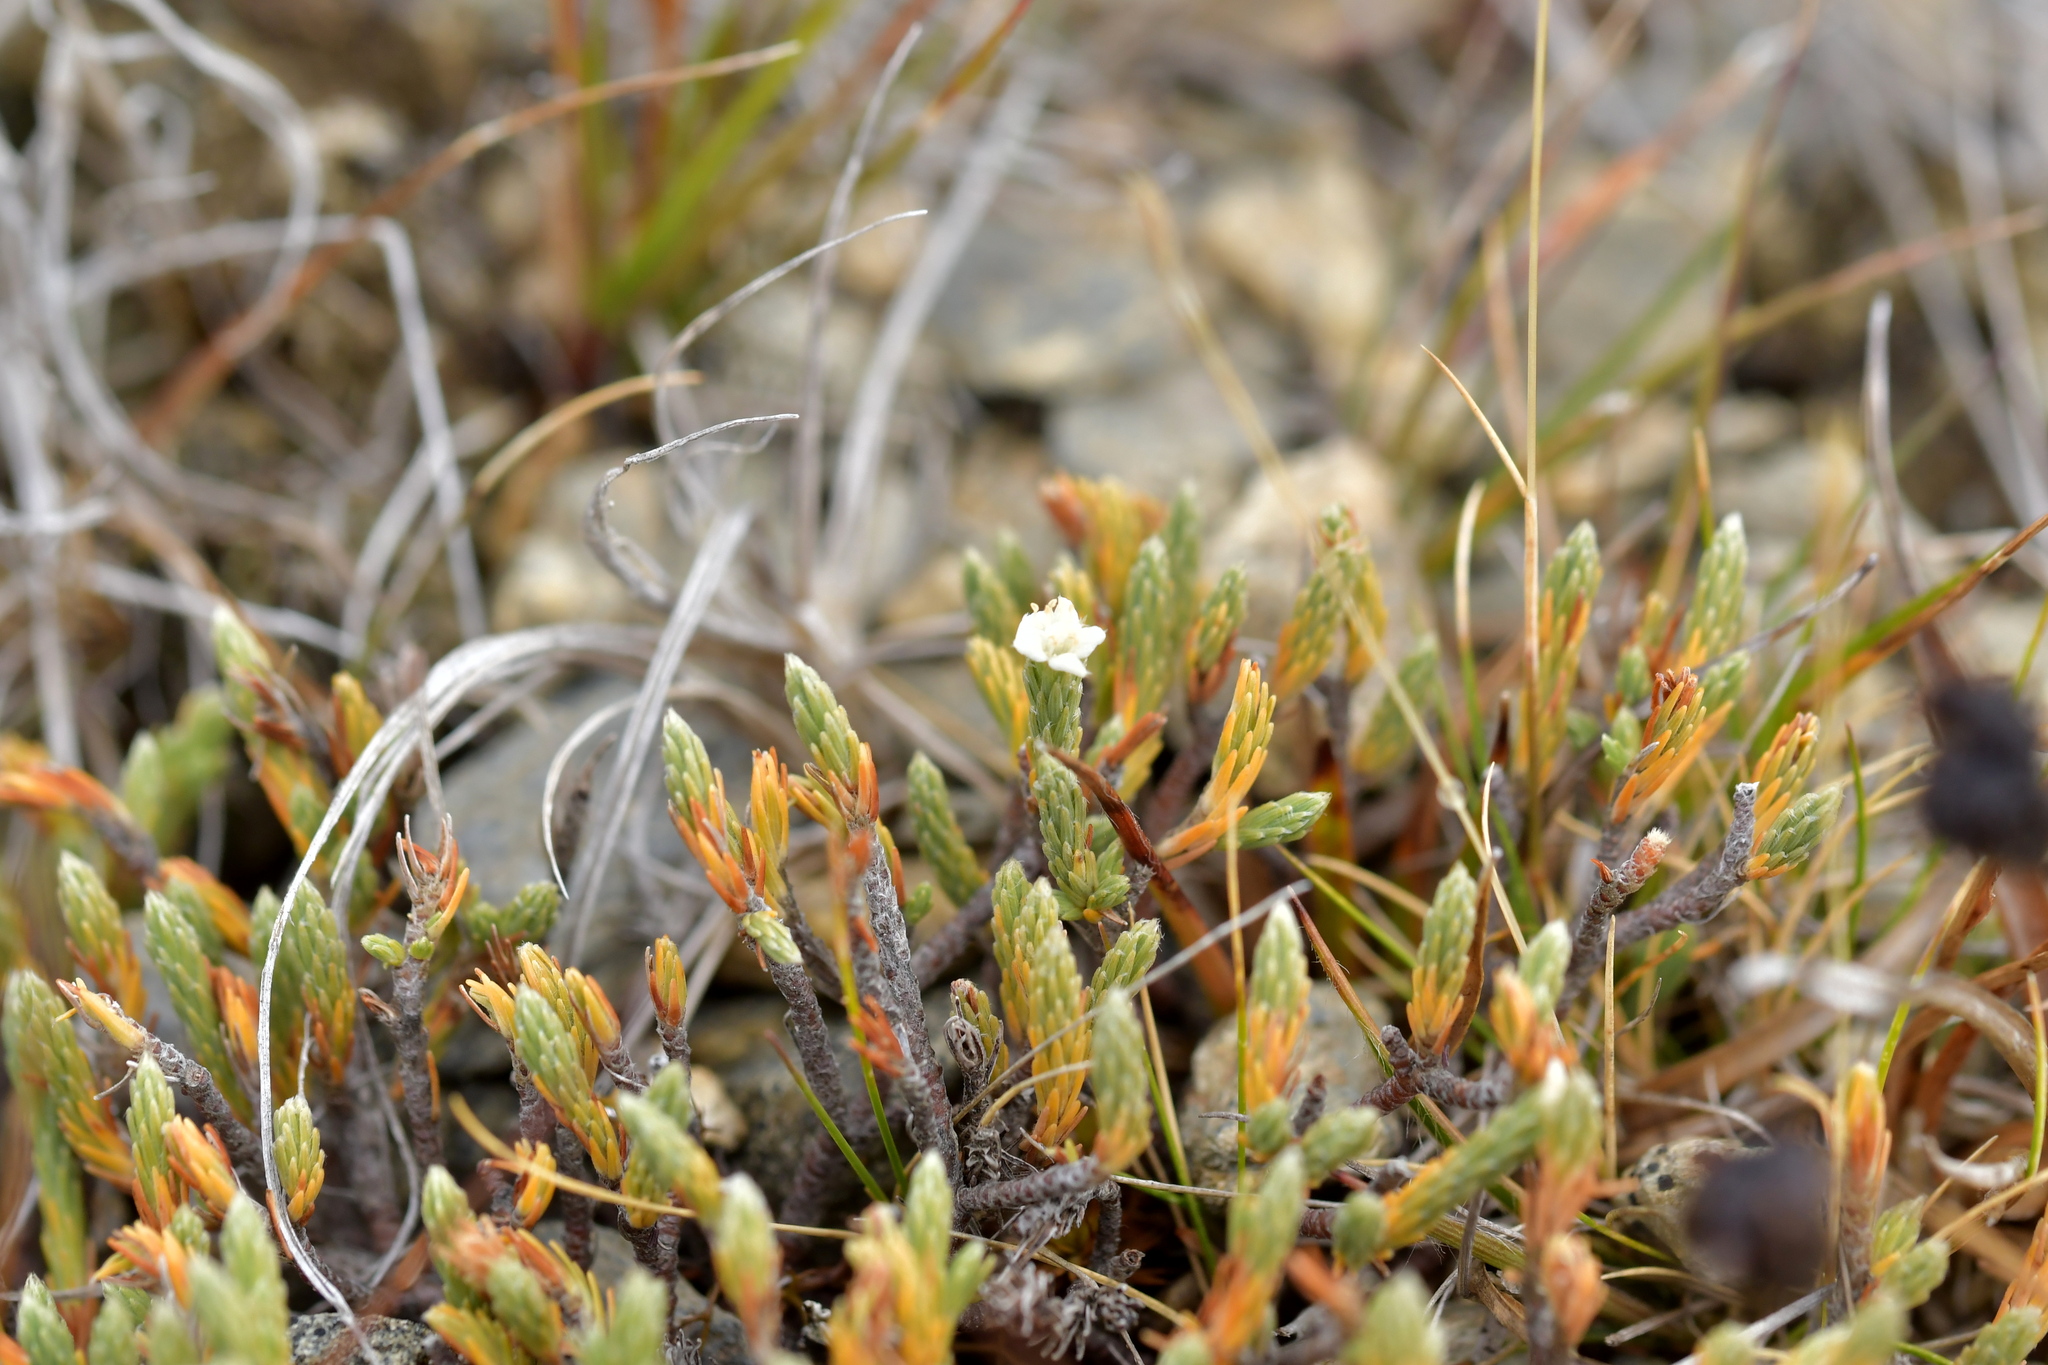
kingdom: Plantae
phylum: Tracheophyta
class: Magnoliopsida
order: Malvales
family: Thymelaeaceae
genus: Kelleria
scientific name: Kelleria villosa
